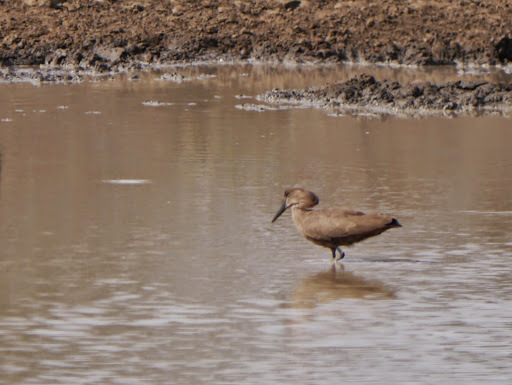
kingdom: Animalia
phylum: Chordata
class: Aves
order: Pelecaniformes
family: Scopidae
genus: Scopus
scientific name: Scopus umbretta
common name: Hamerkop
